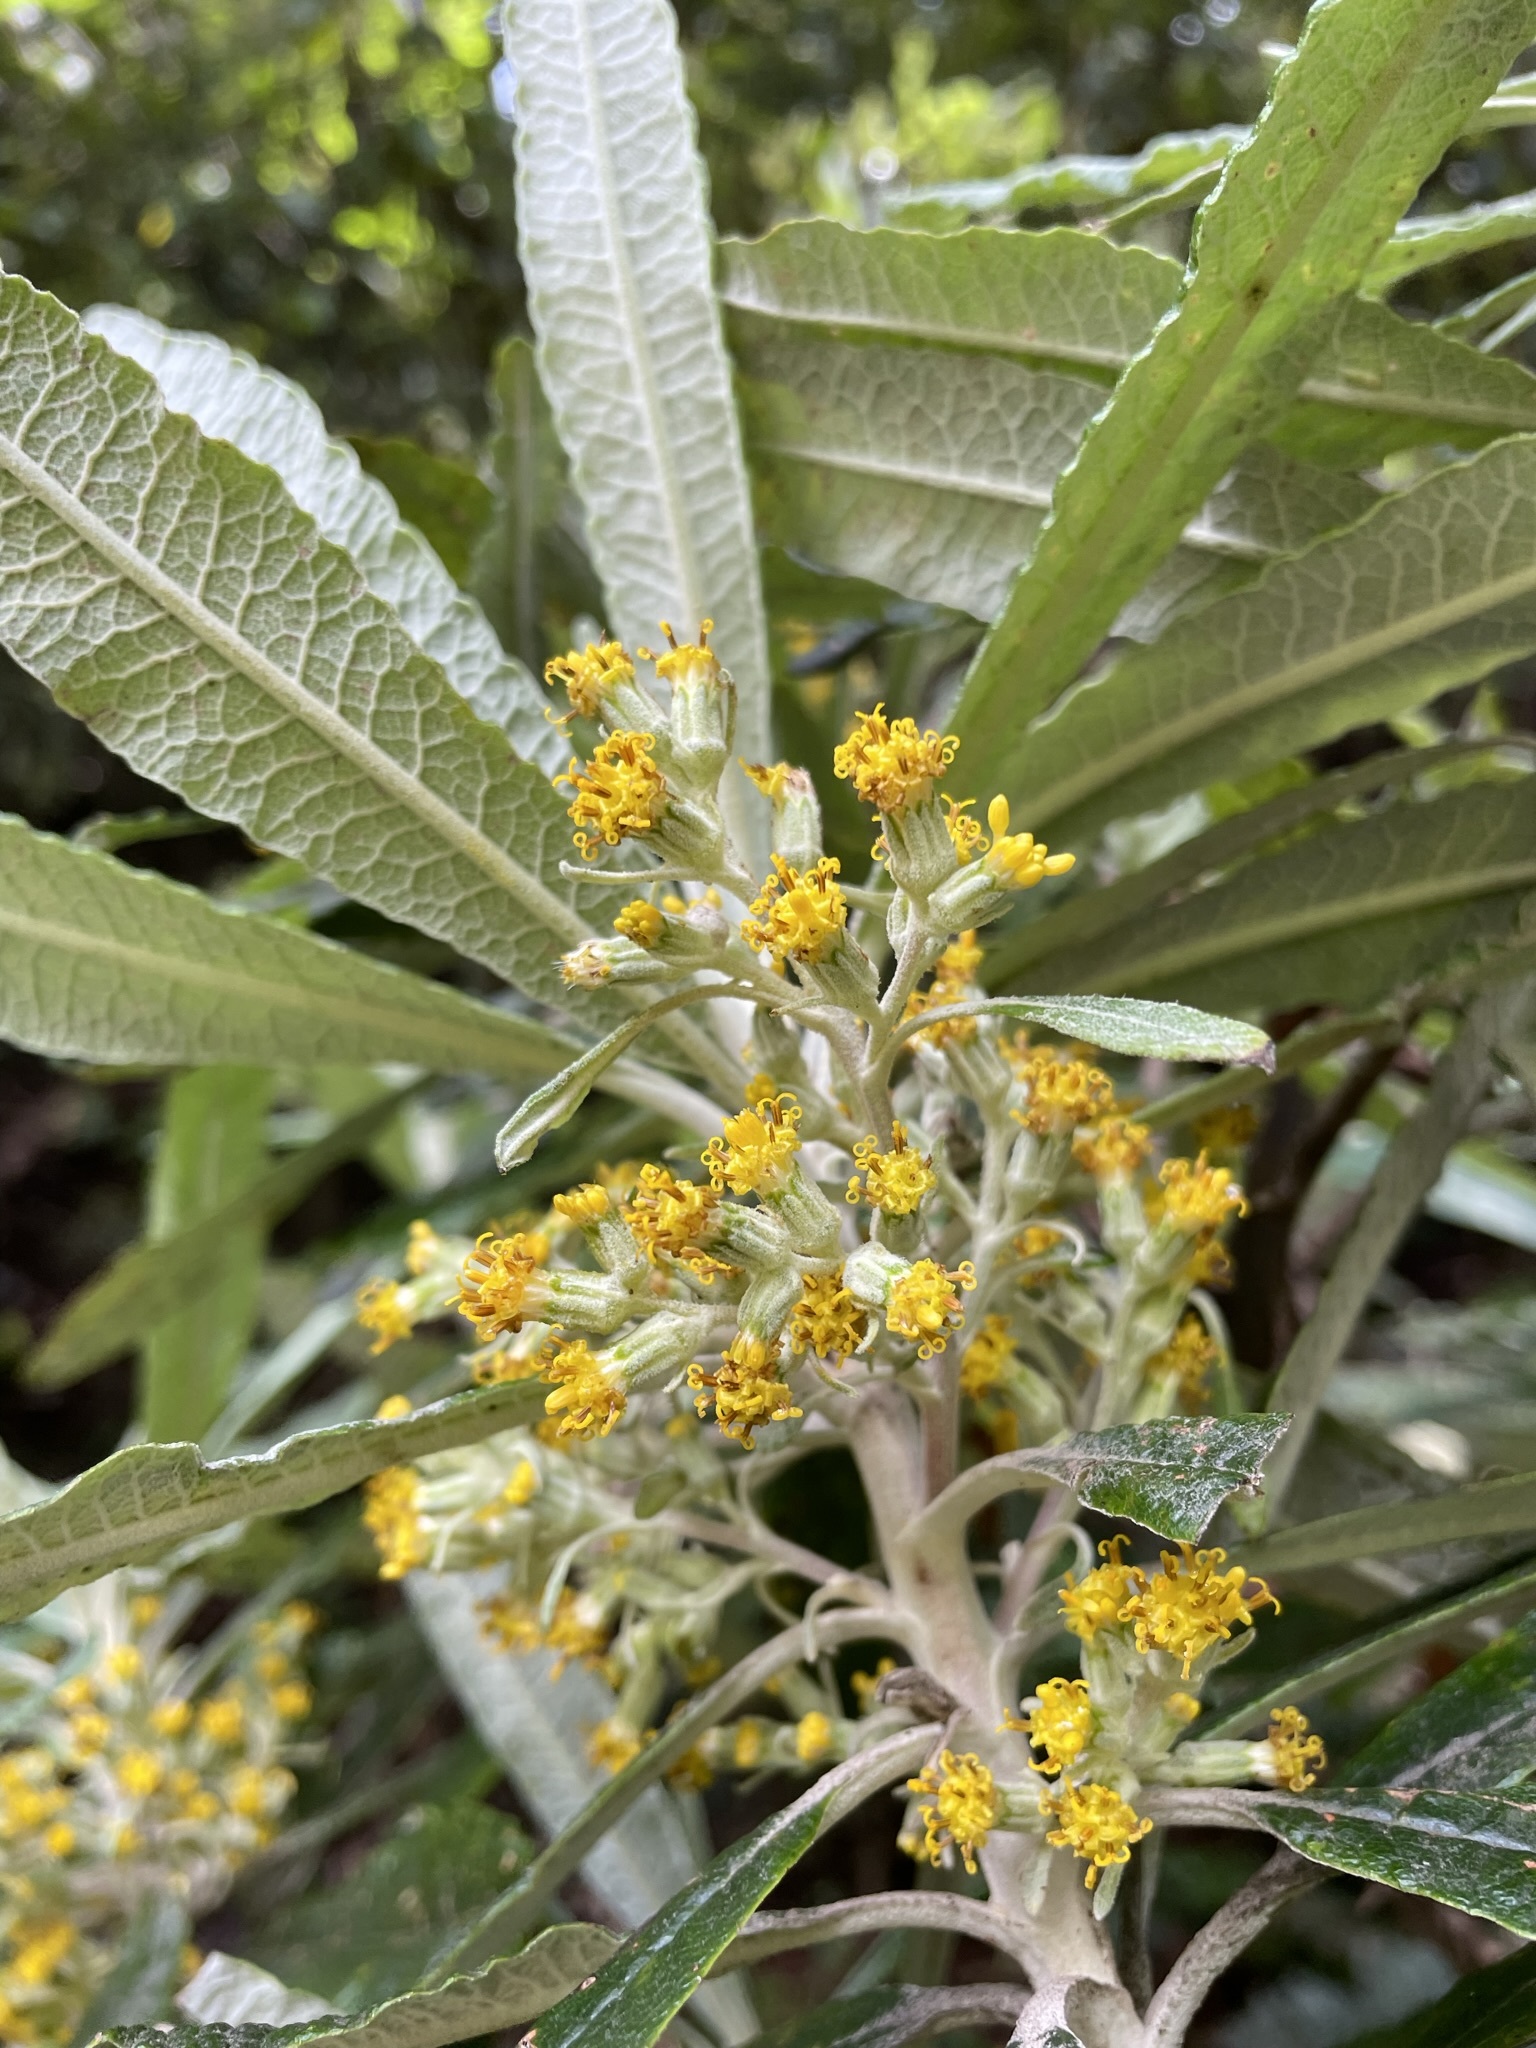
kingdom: Plantae
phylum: Tracheophyta
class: Magnoliopsida
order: Asterales
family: Asteraceae
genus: Bedfordia
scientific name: Bedfordia salicina
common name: Blanketleaf
